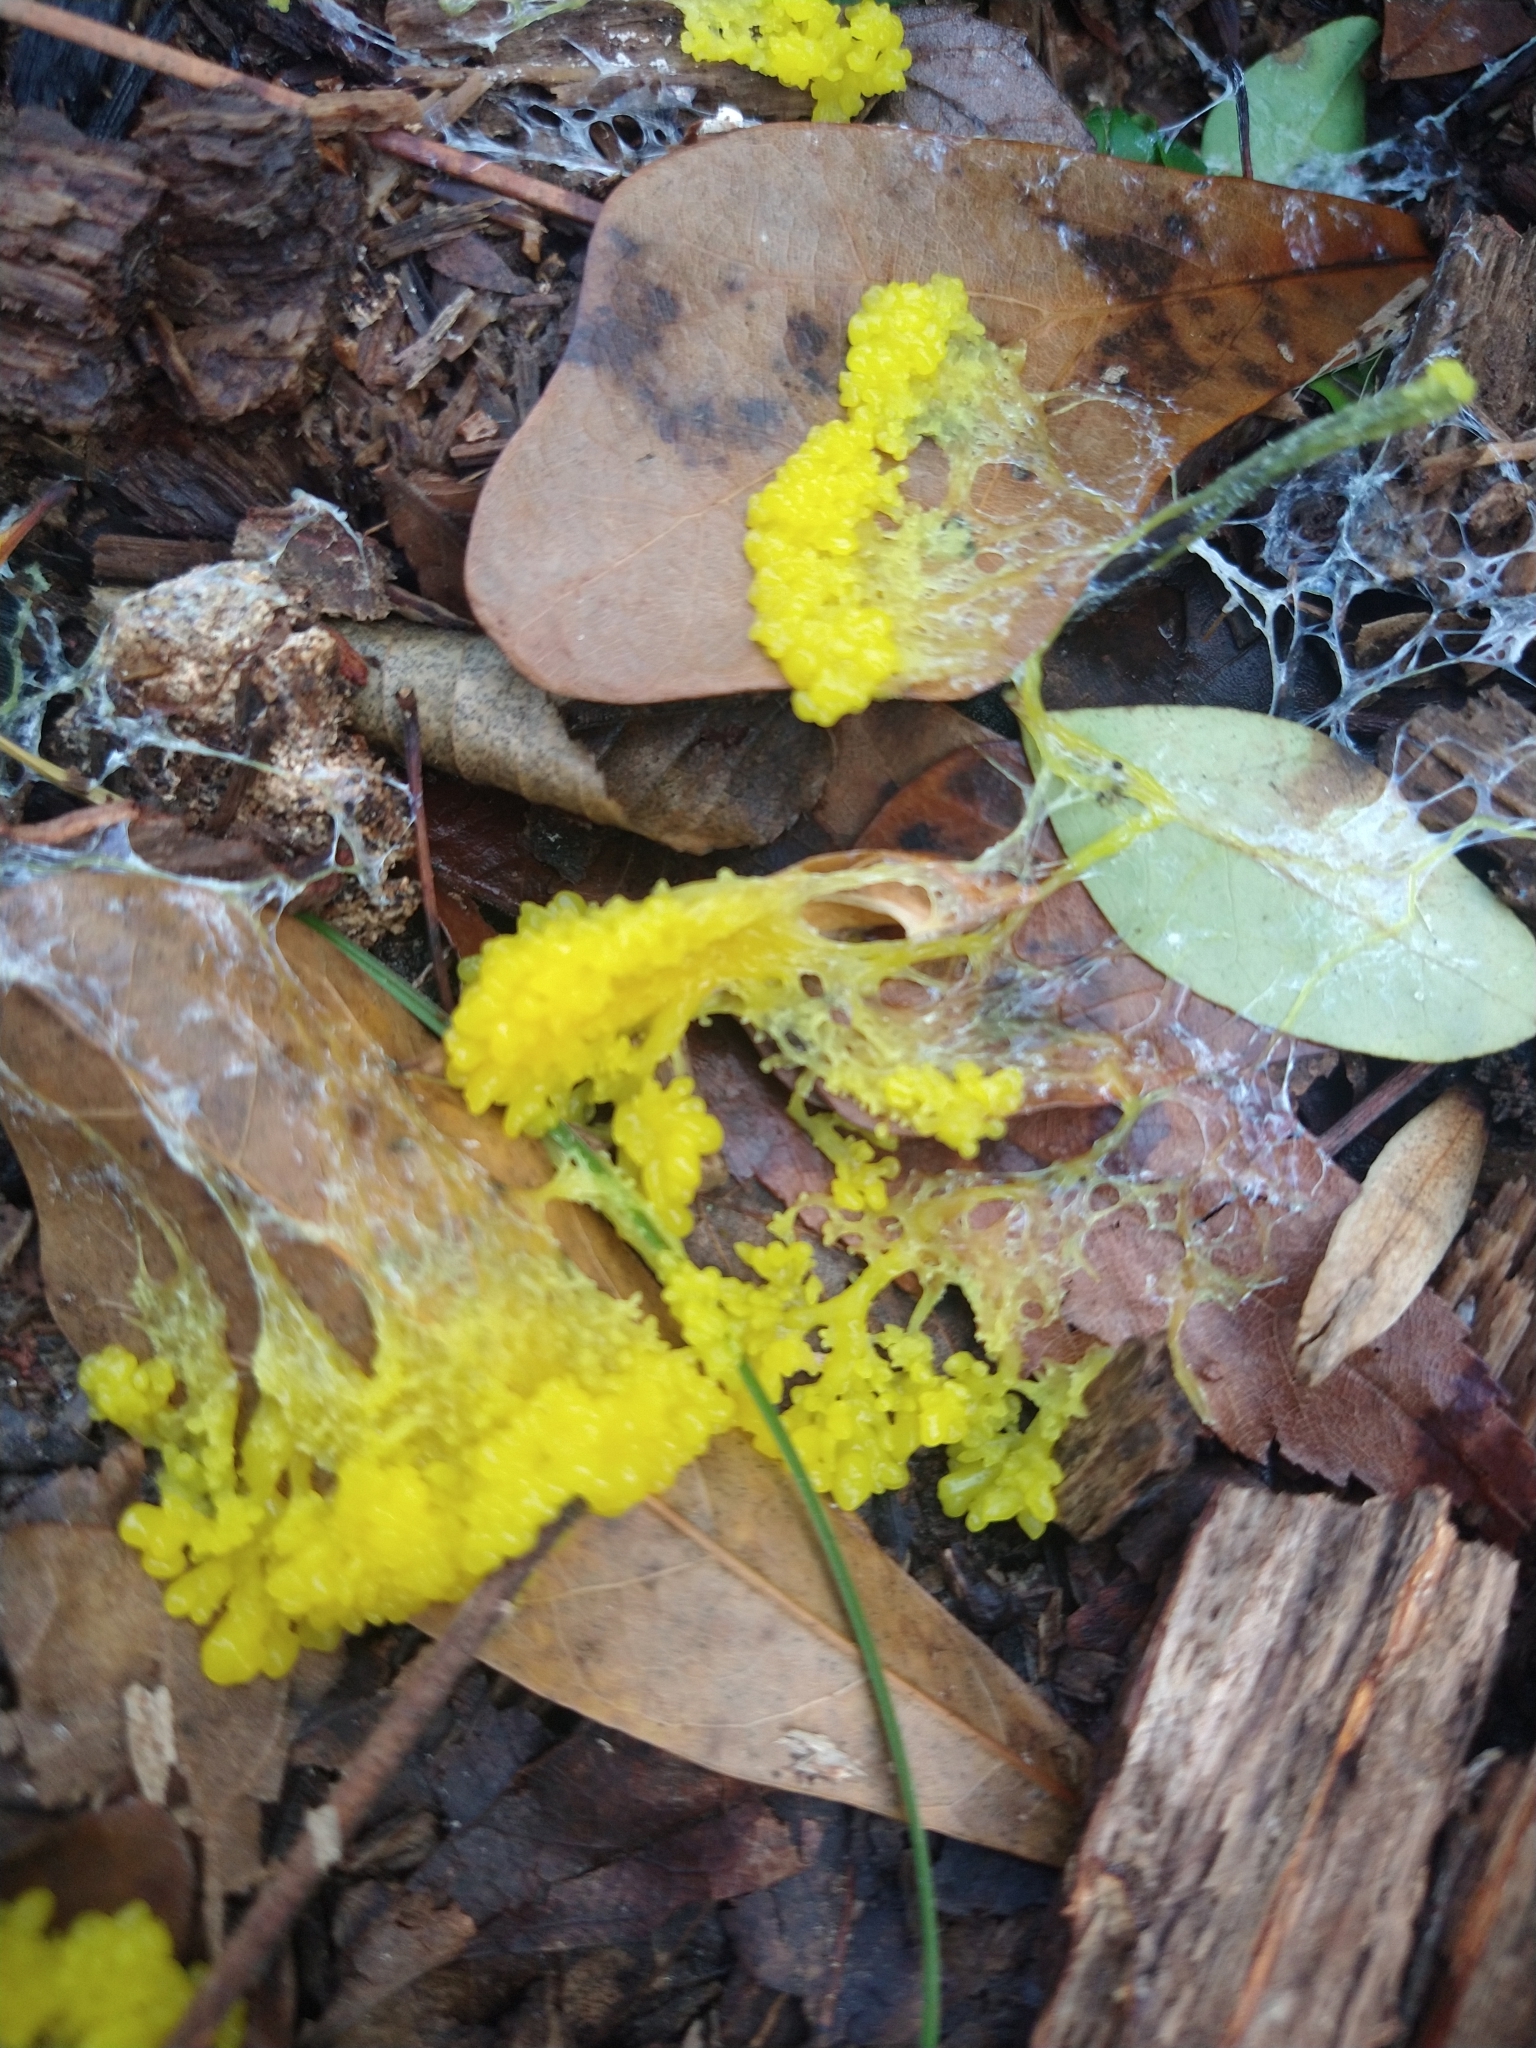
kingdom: Protozoa
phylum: Mycetozoa
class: Myxomycetes
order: Physarales
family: Physaraceae
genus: Fuligo
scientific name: Fuligo septica
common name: Dog vomit slime mold
